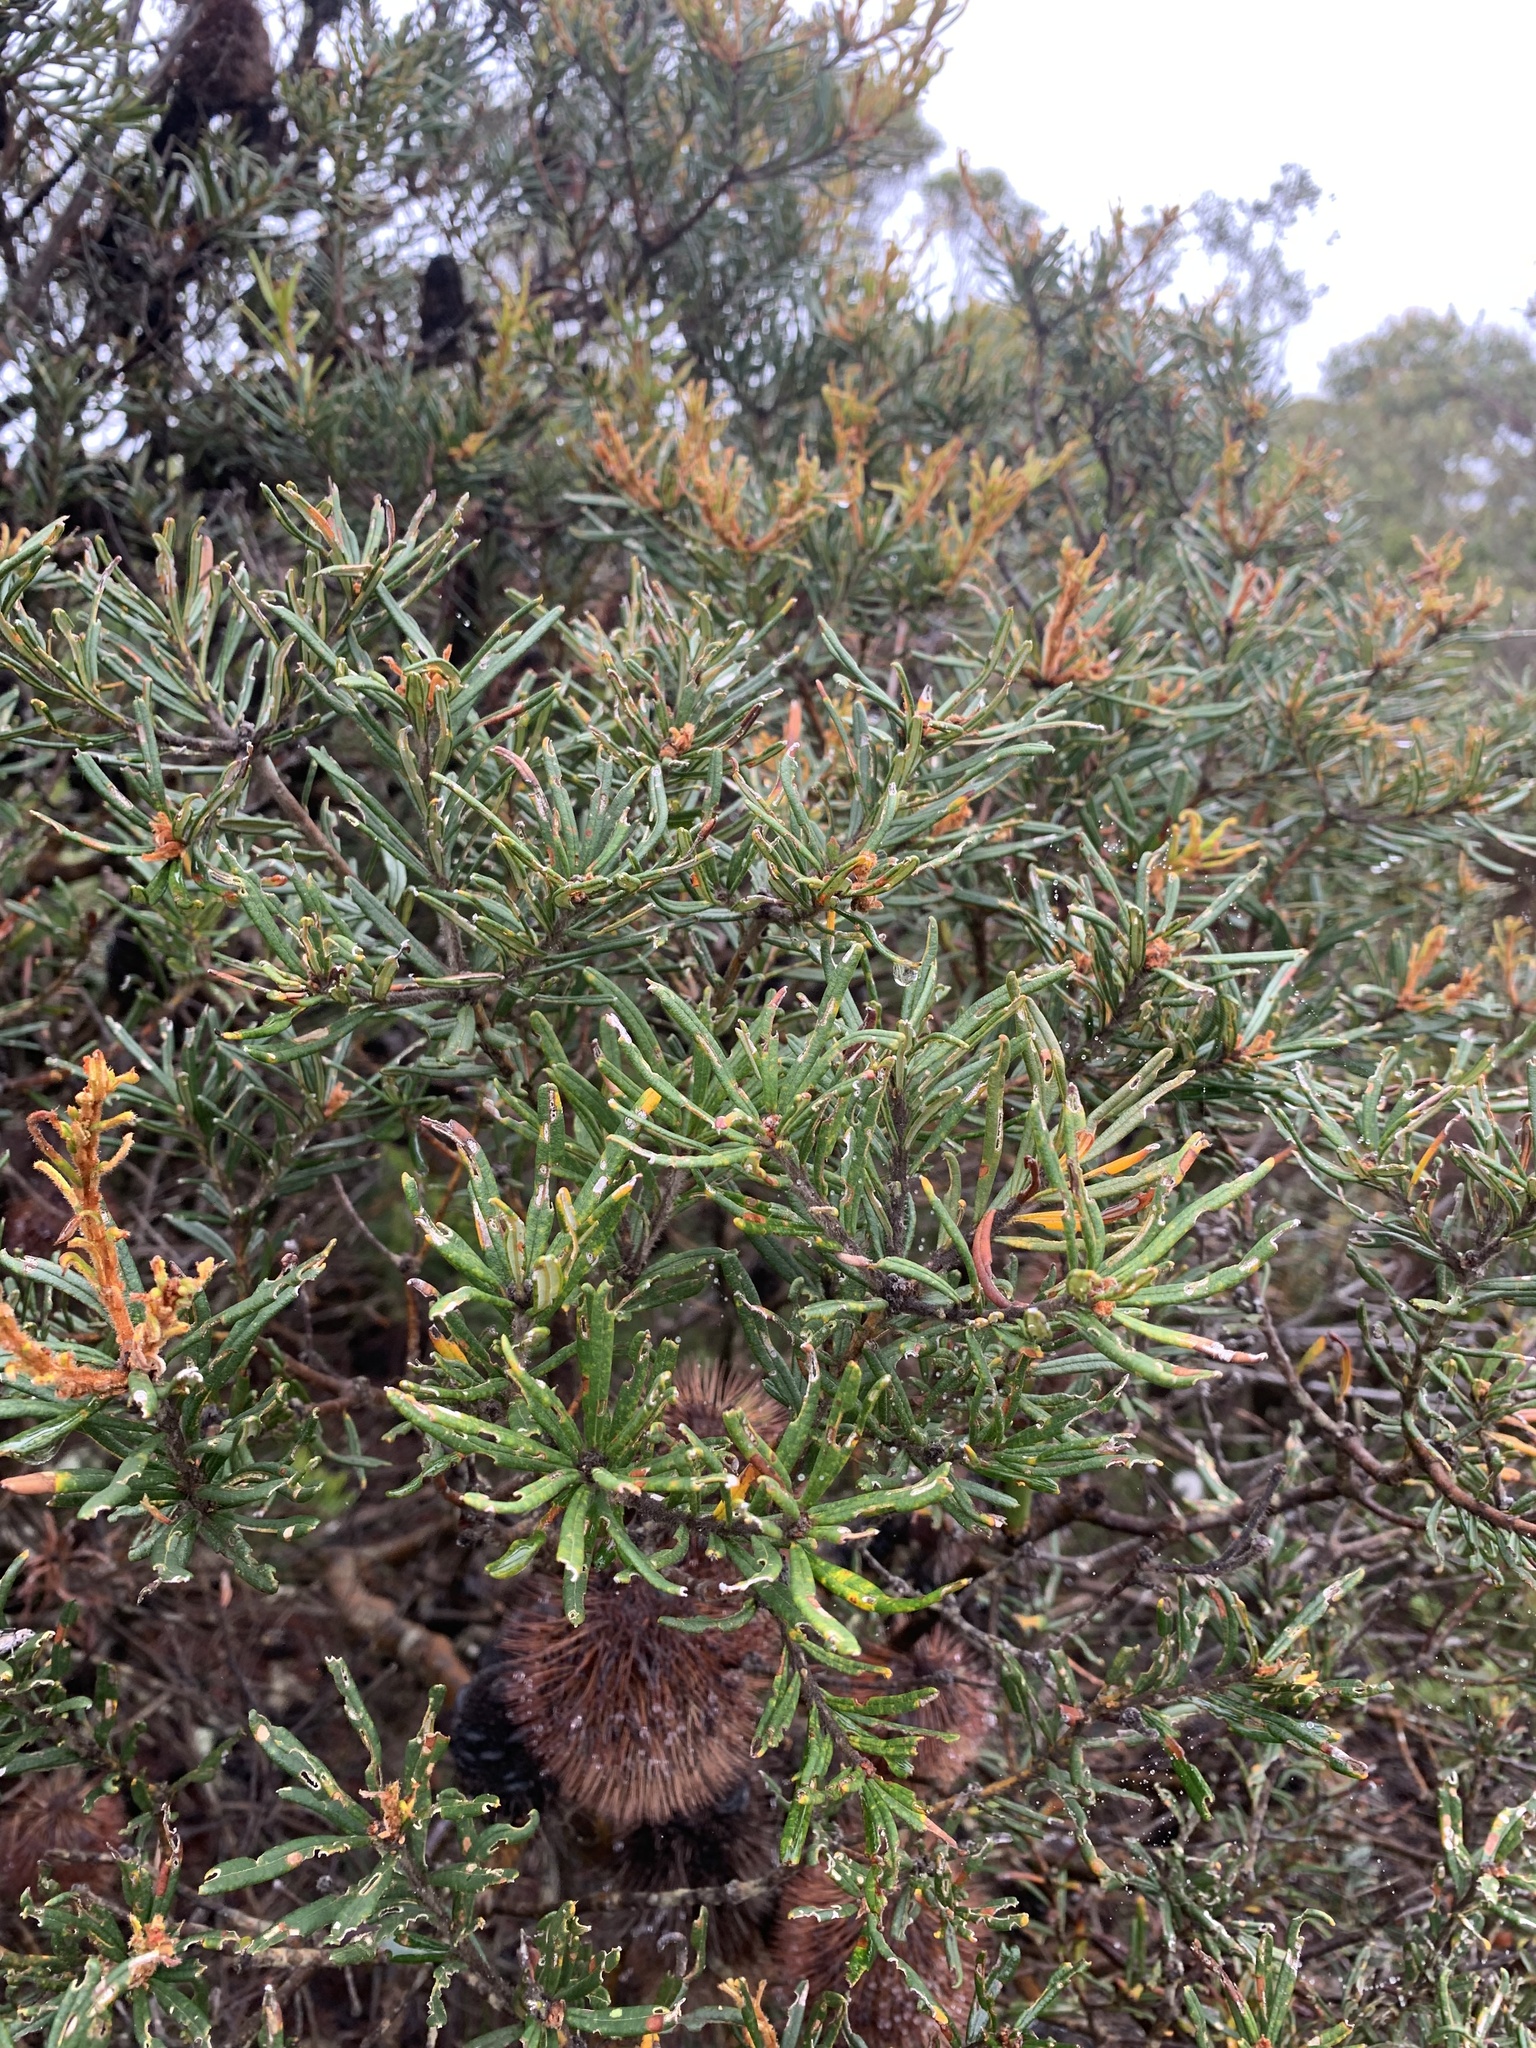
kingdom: Plantae
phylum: Tracheophyta
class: Magnoliopsida
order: Proteales
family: Proteaceae
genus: Banksia
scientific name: Banksia marginata
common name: Silver banksia
